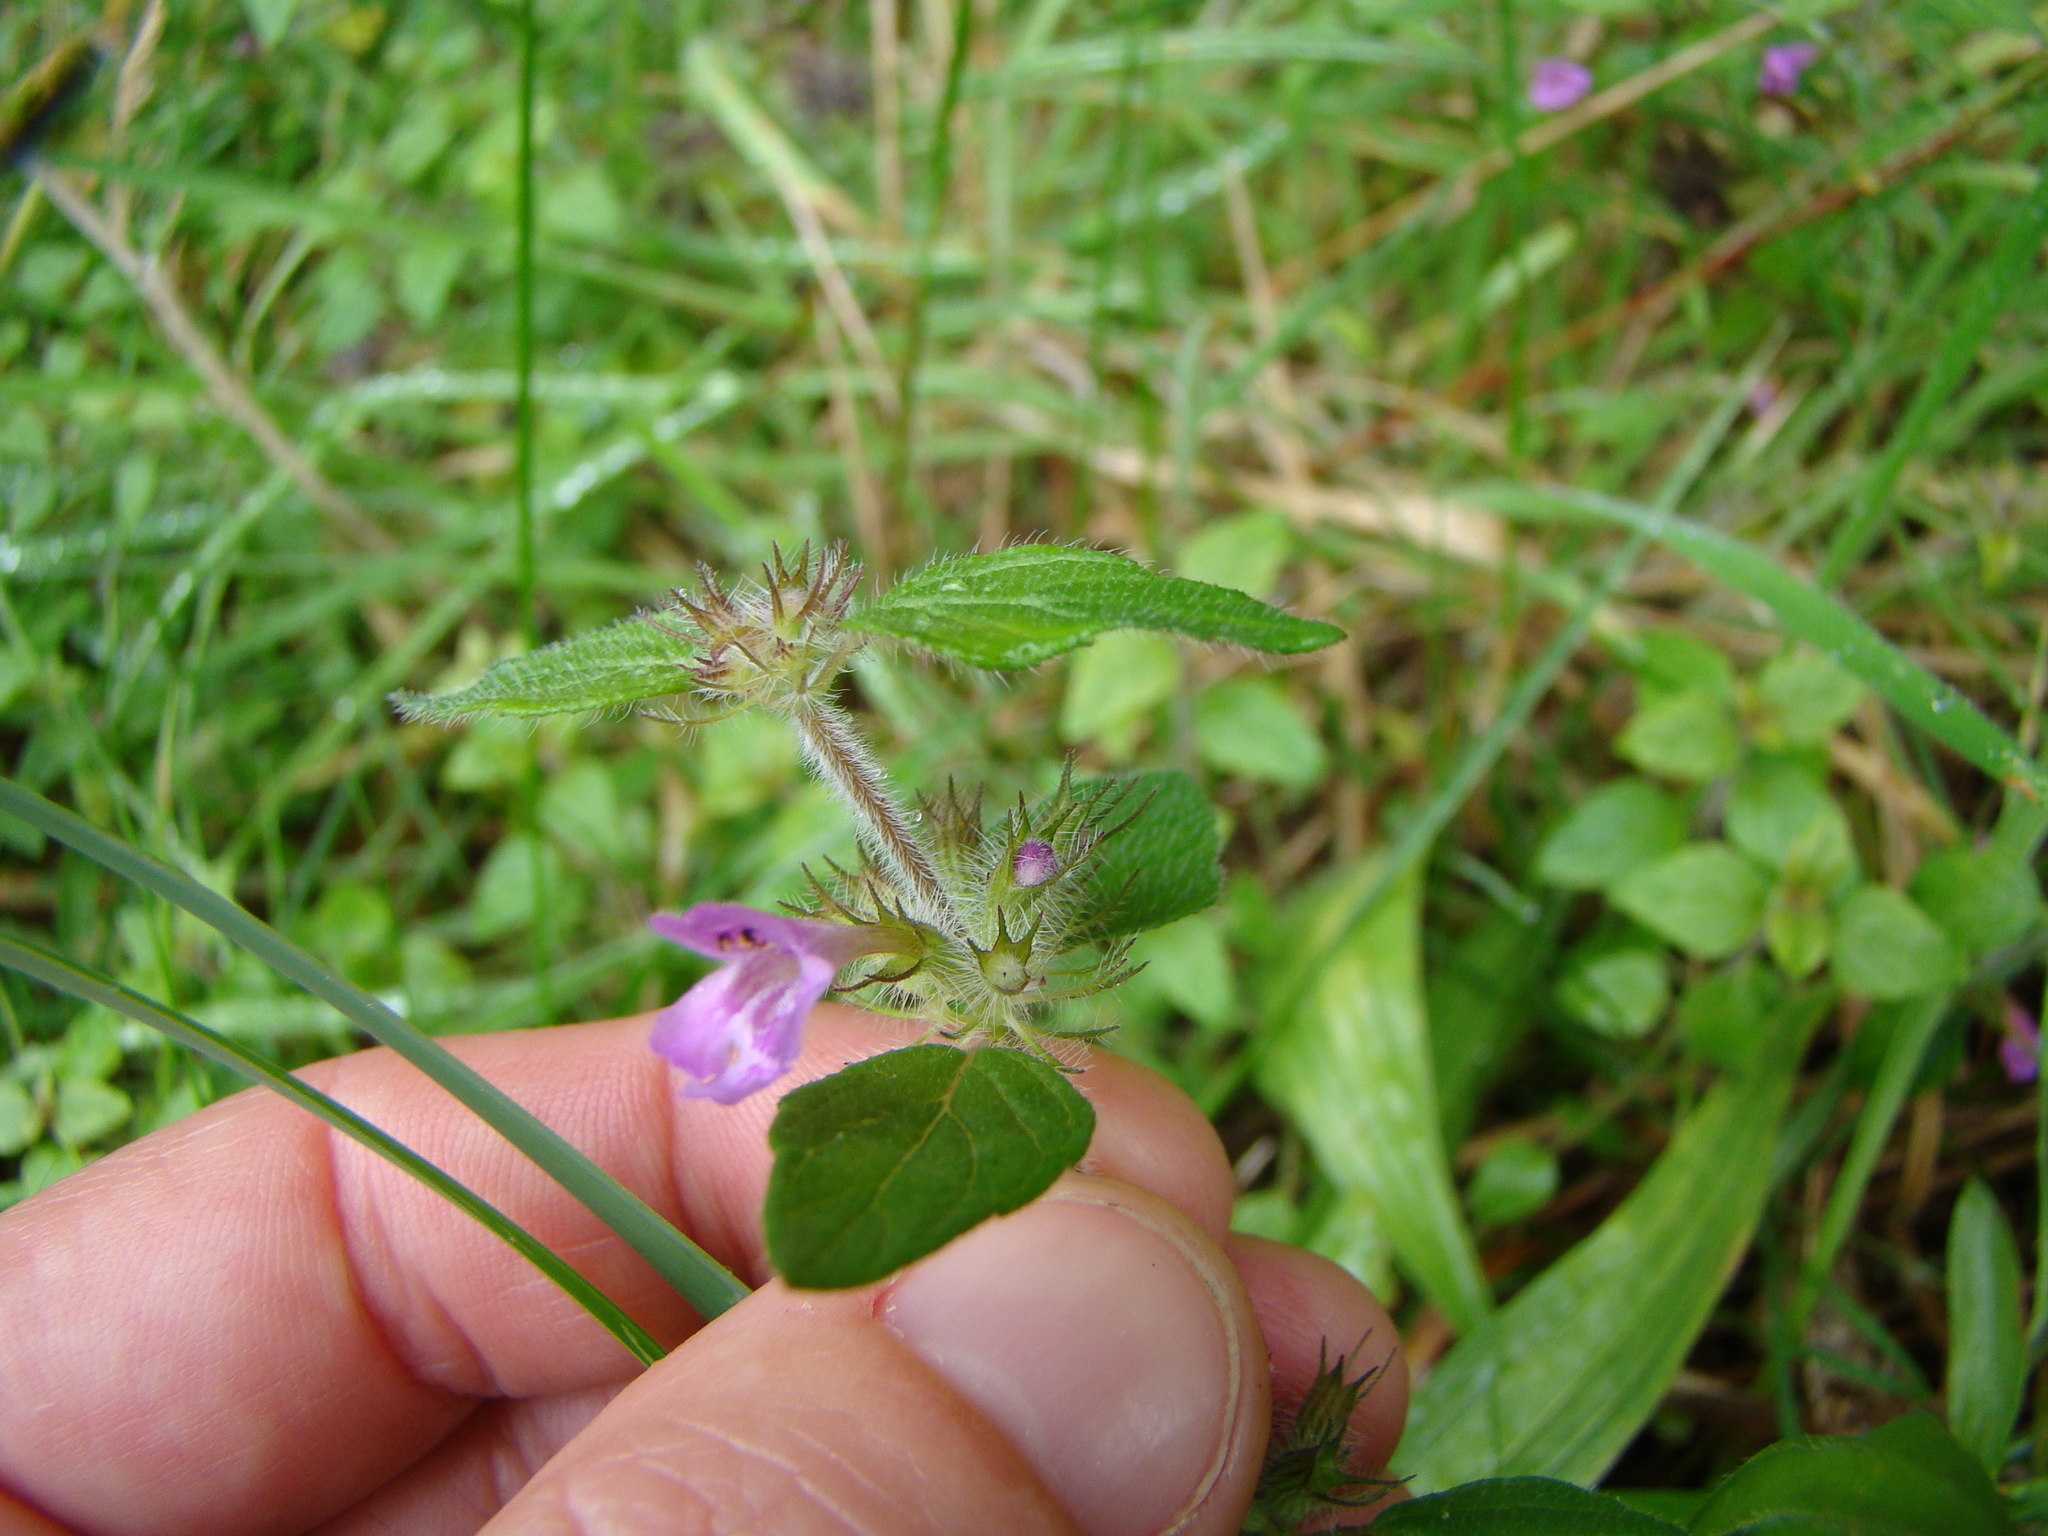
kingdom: Plantae
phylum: Tracheophyta
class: Magnoliopsida
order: Lamiales
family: Lamiaceae
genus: Clinopodium
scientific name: Clinopodium vulgare
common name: Wild basil
